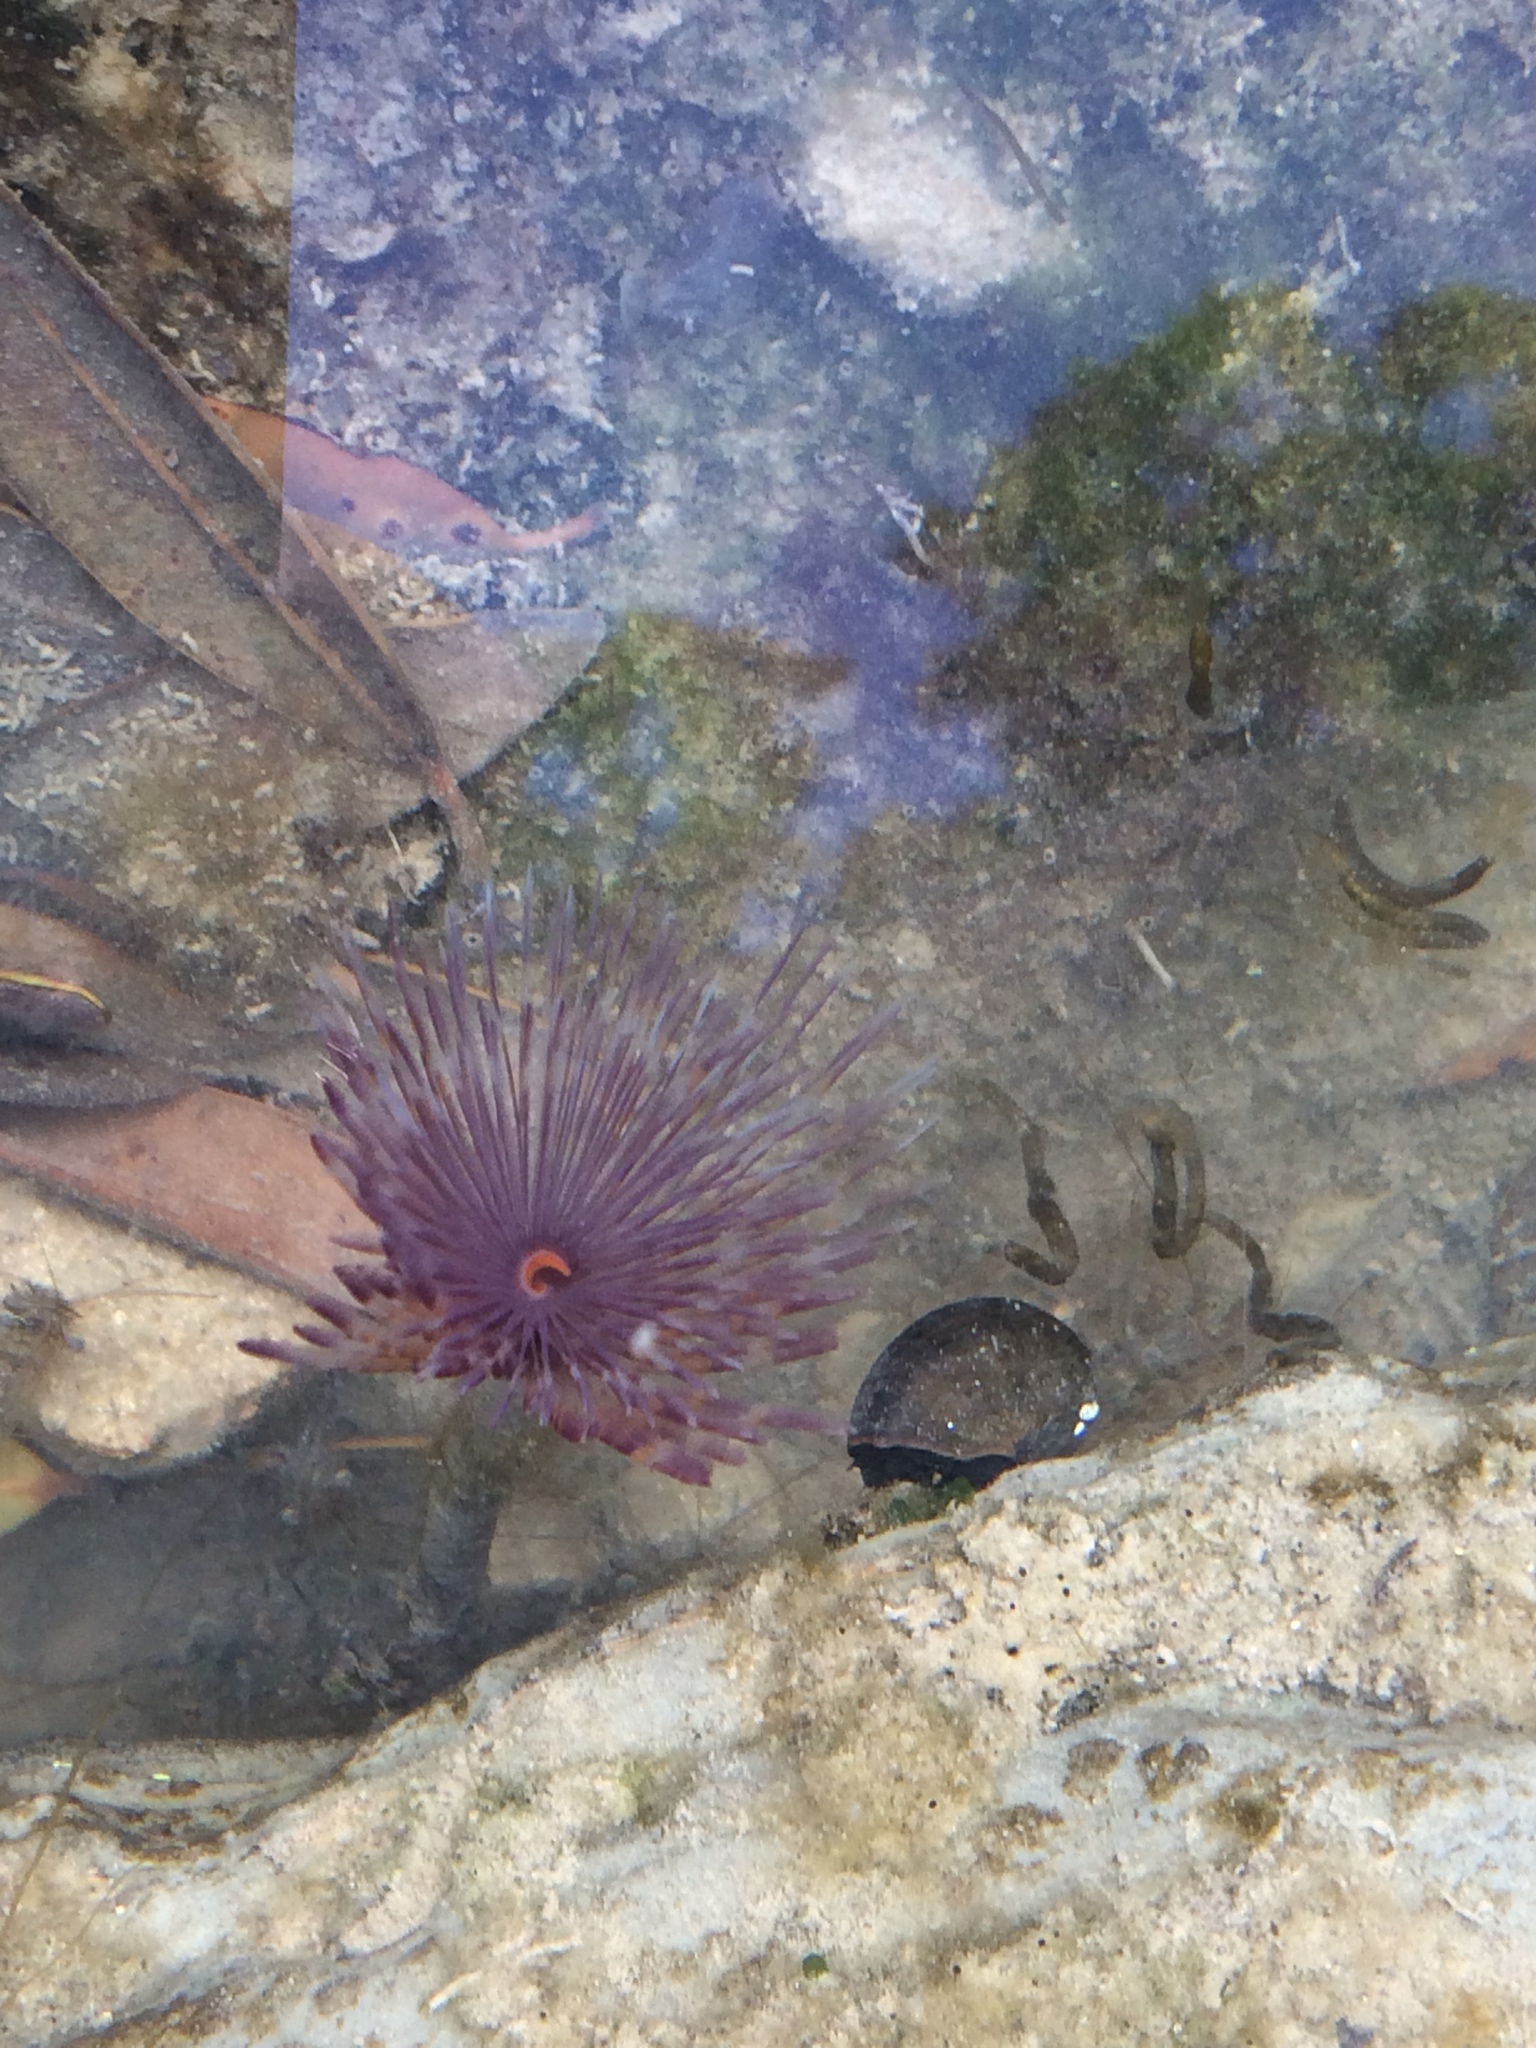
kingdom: Animalia
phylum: Annelida
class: Polychaeta
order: Sabellida
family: Sabellidae
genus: Sabella
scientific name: Sabella spallanzanii
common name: Feather duster worm
